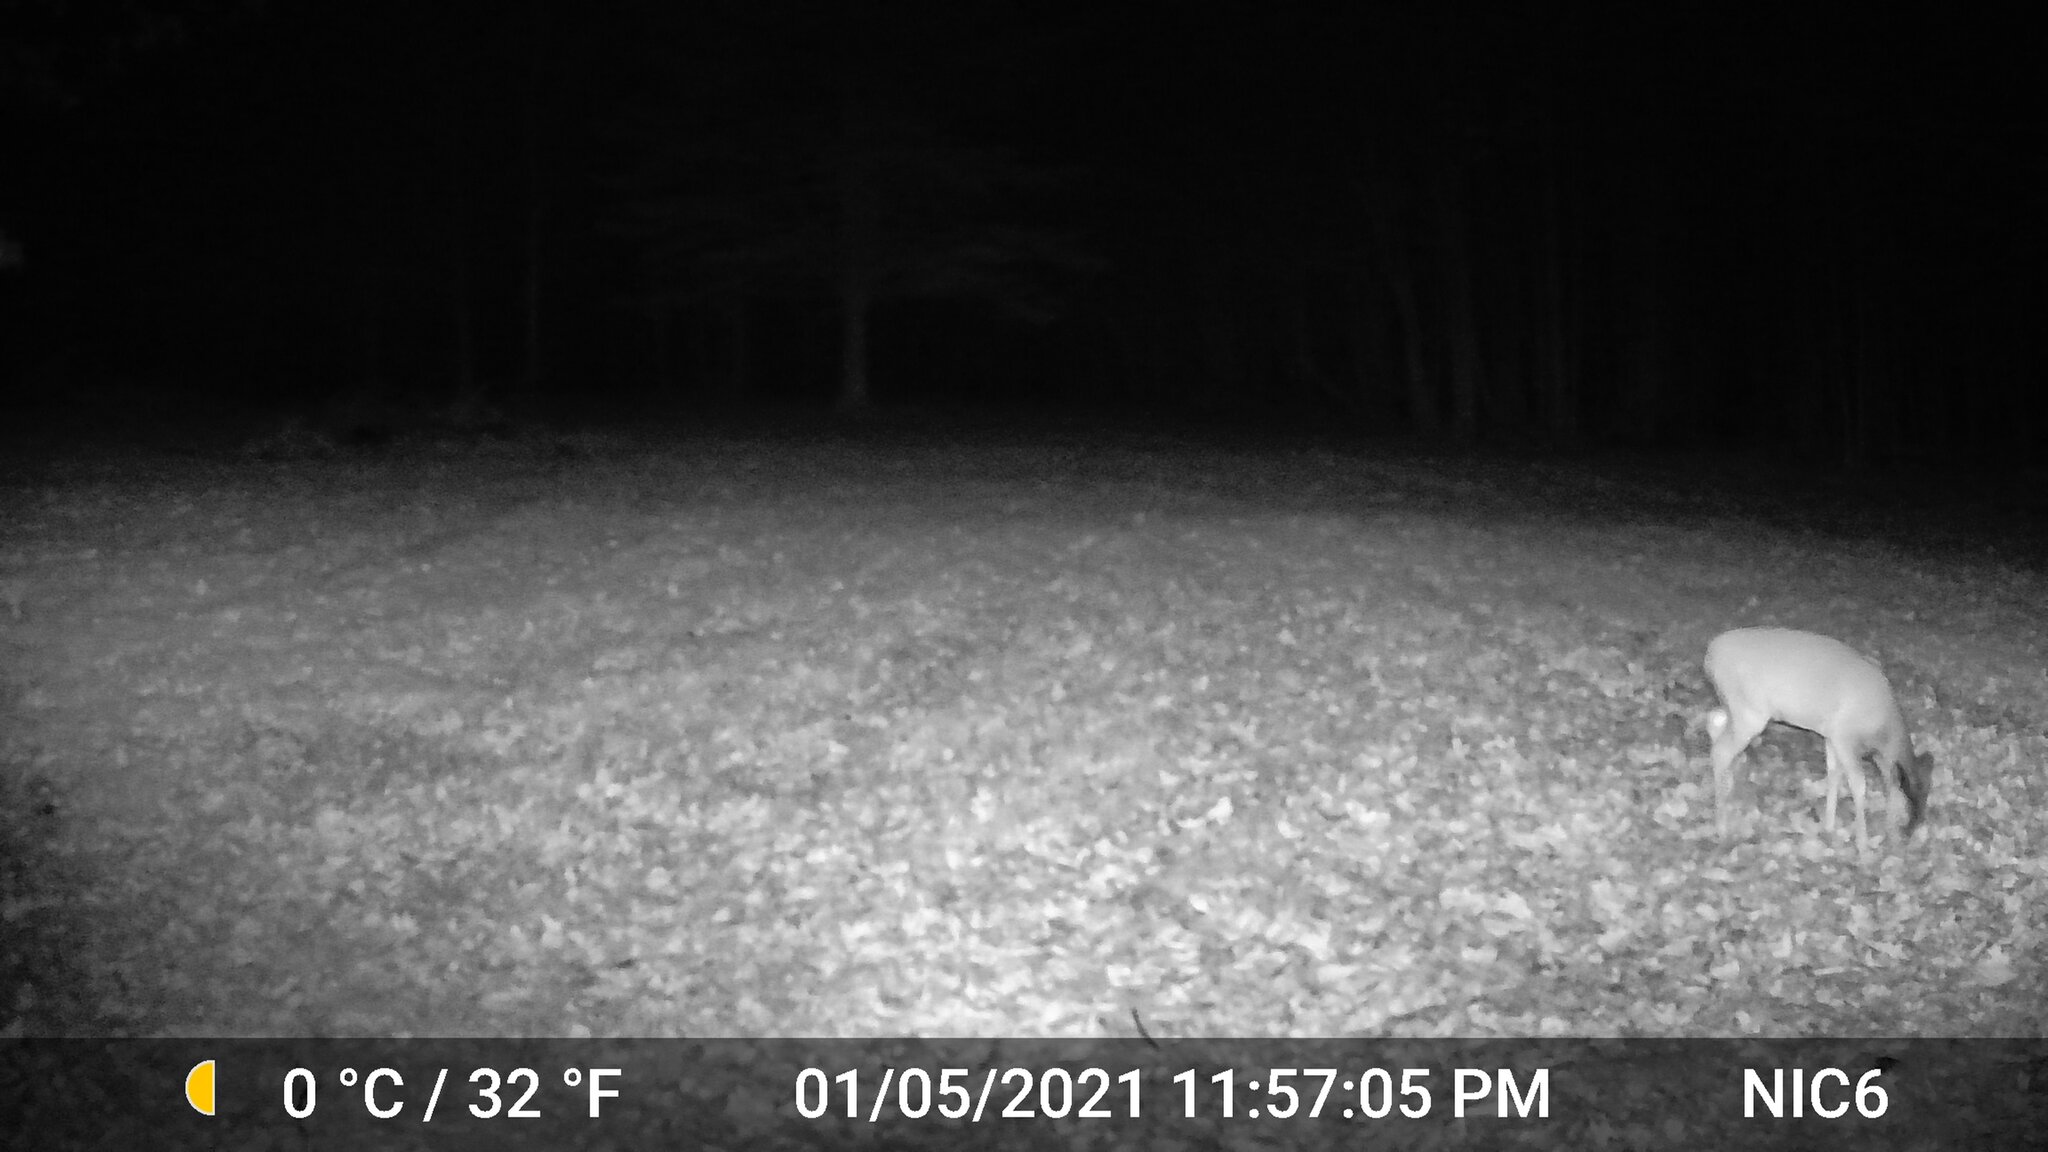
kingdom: Animalia
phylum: Chordata
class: Mammalia
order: Artiodactyla
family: Cervidae
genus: Odocoileus
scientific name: Odocoileus virginianus
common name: White-tailed deer
